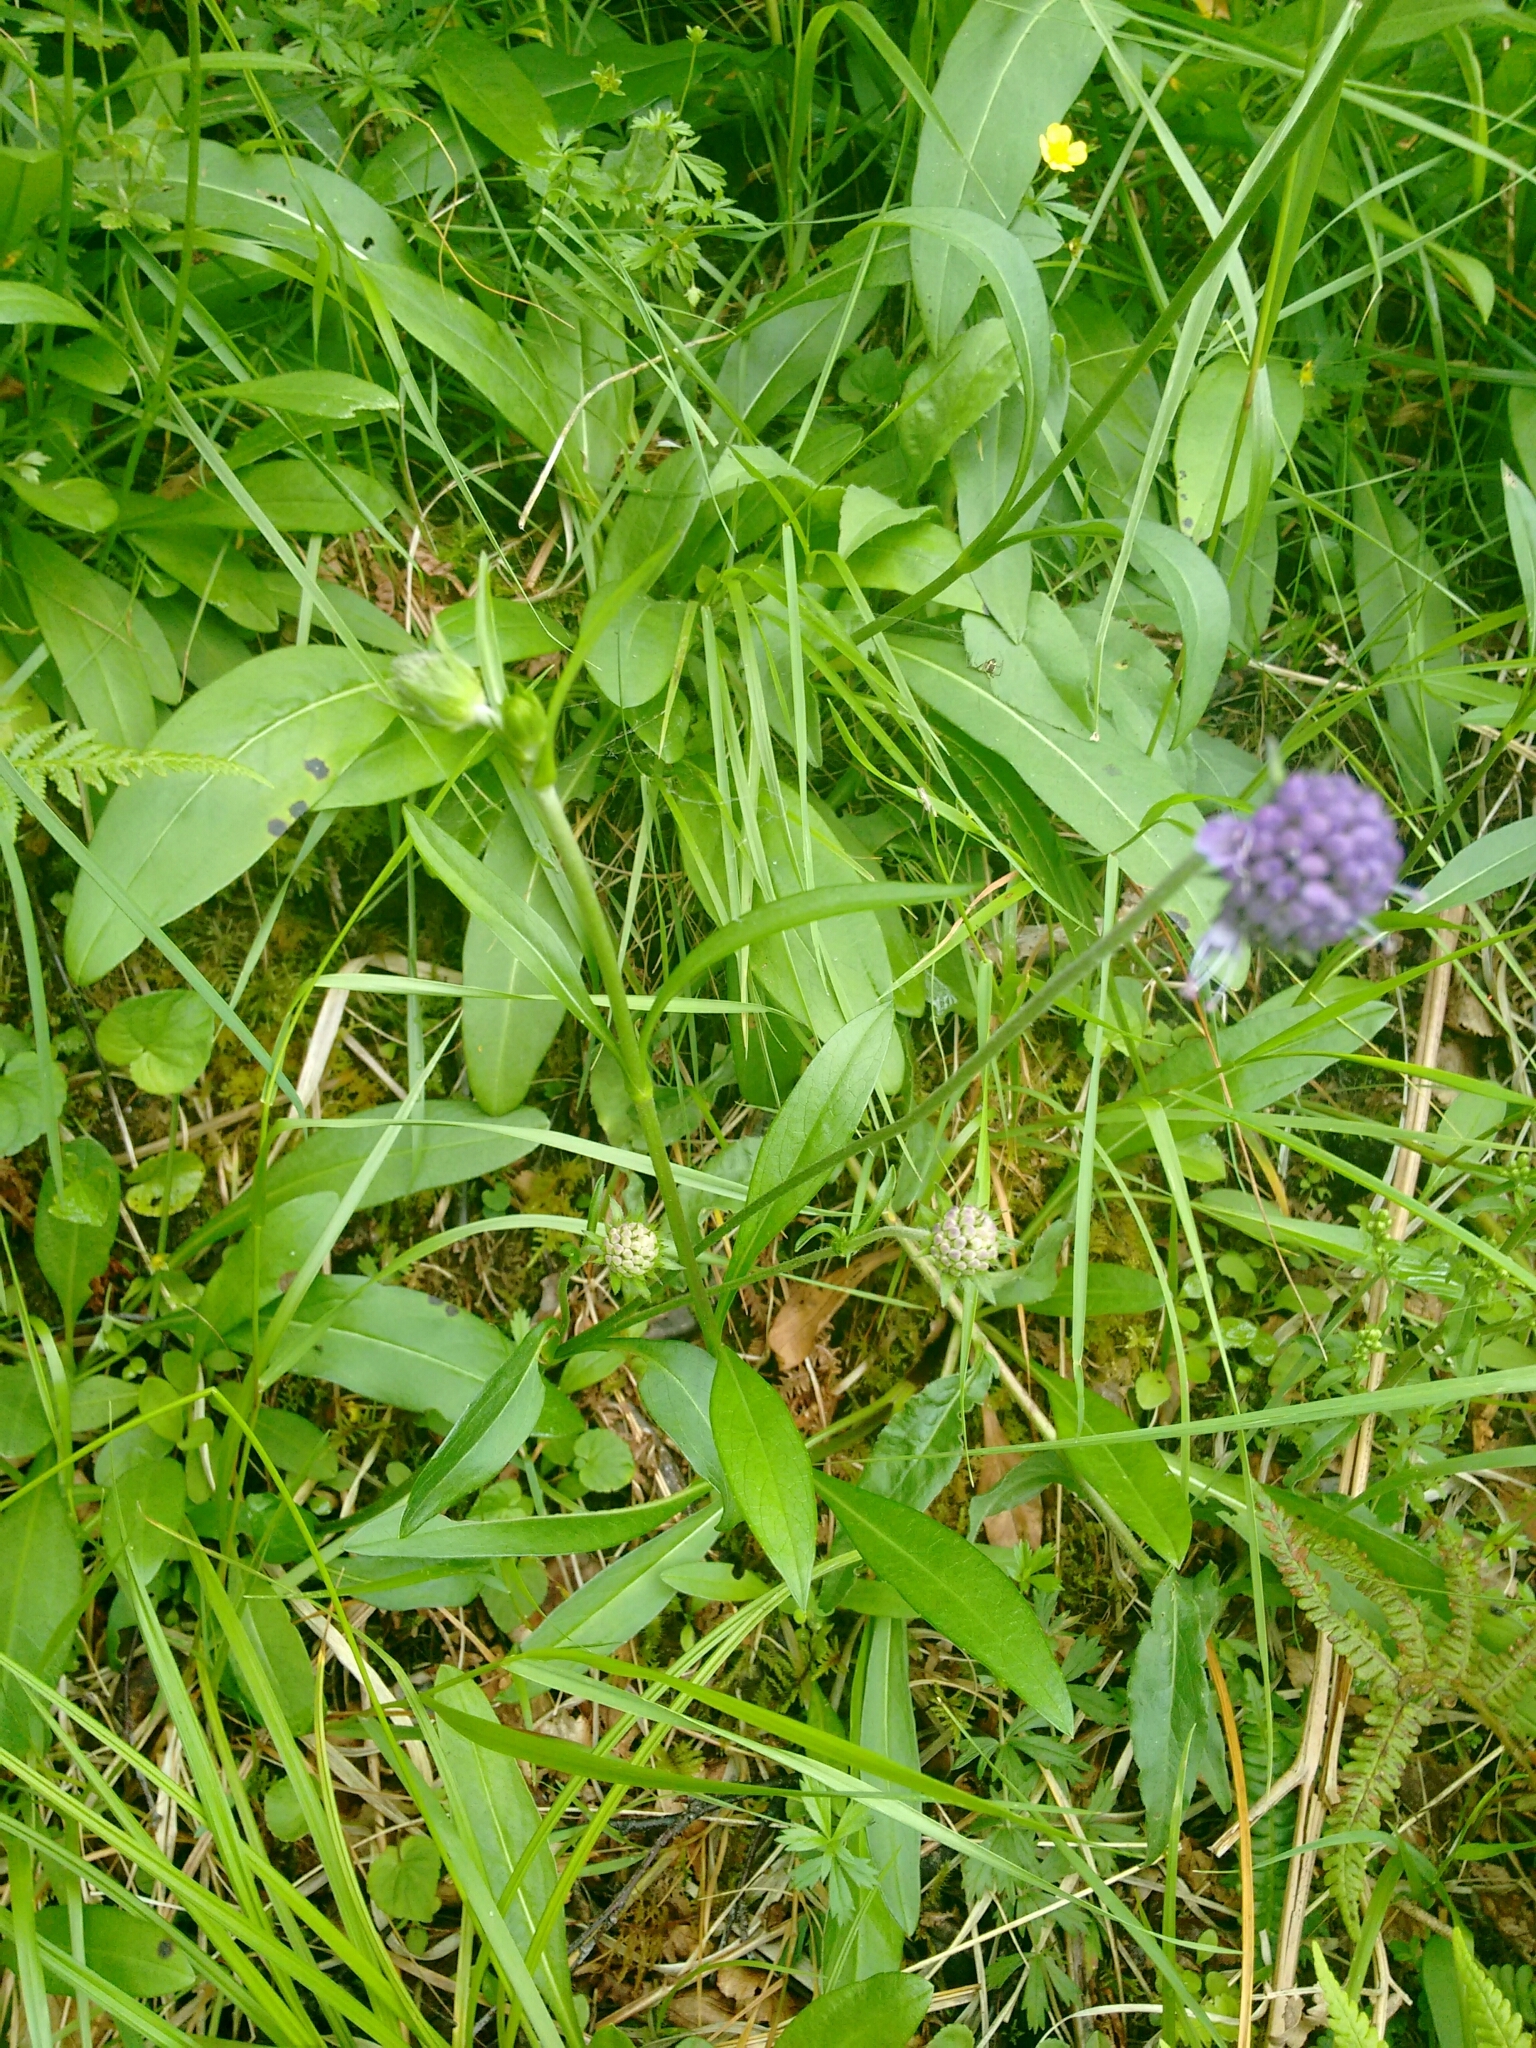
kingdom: Plantae
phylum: Tracheophyta
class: Magnoliopsida
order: Dipsacales
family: Caprifoliaceae
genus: Succisa
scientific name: Succisa pratensis
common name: Devil's-bit
